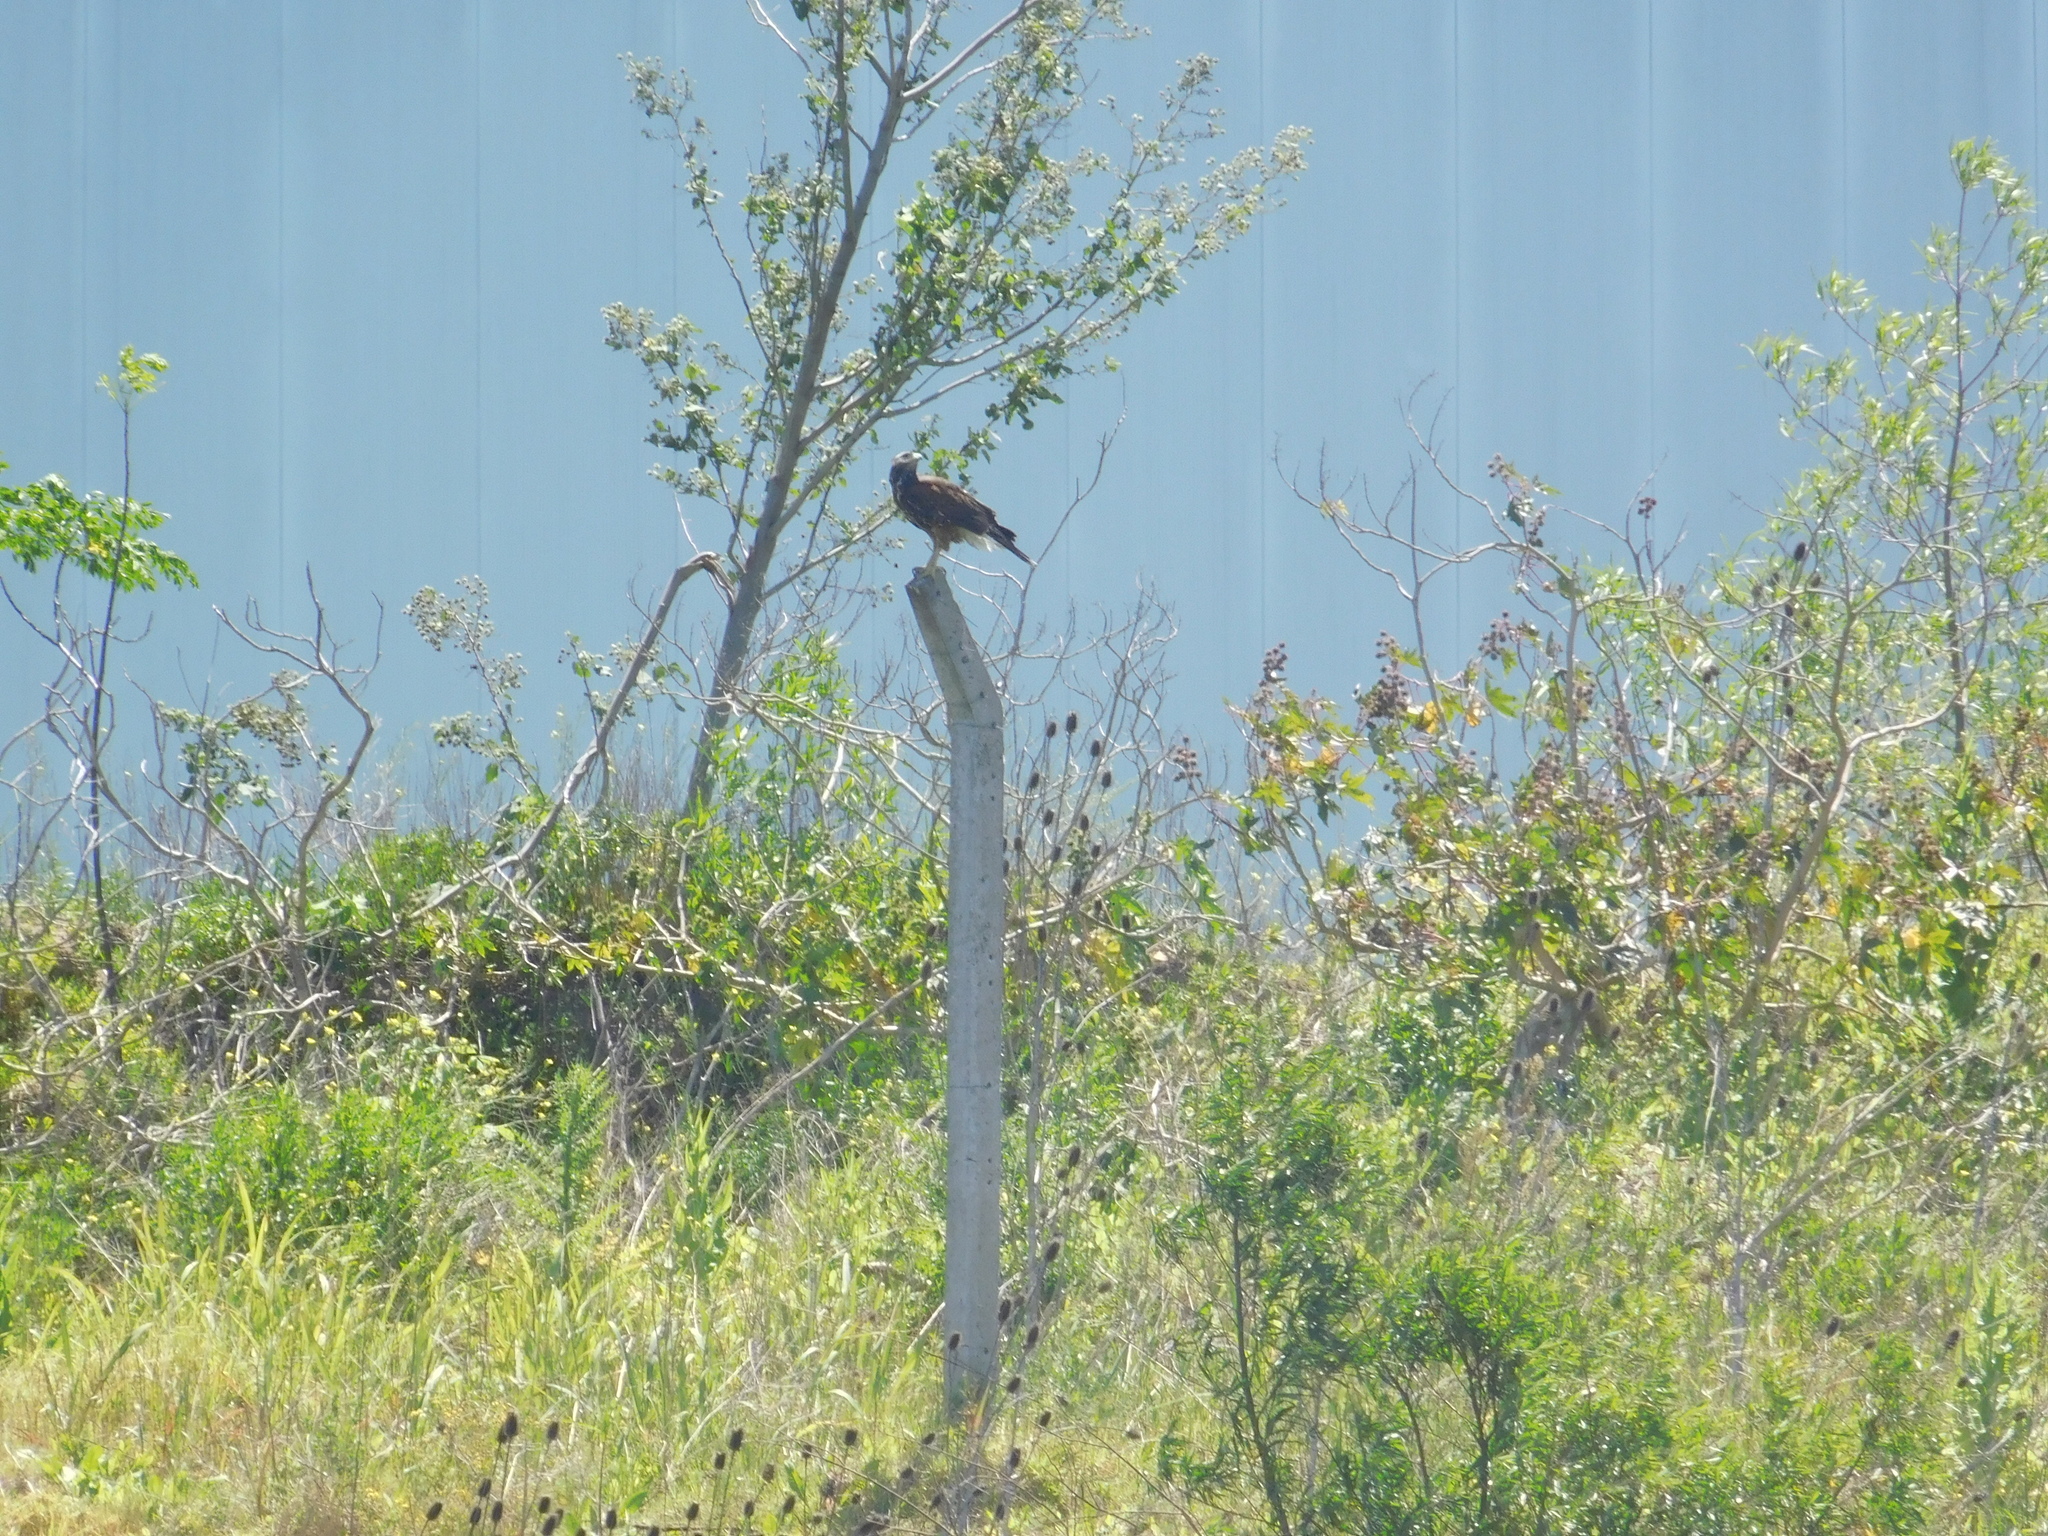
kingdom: Animalia
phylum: Chordata
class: Aves
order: Accipitriformes
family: Accipitridae
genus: Parabuteo
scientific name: Parabuteo unicinctus
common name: Harris's hawk
